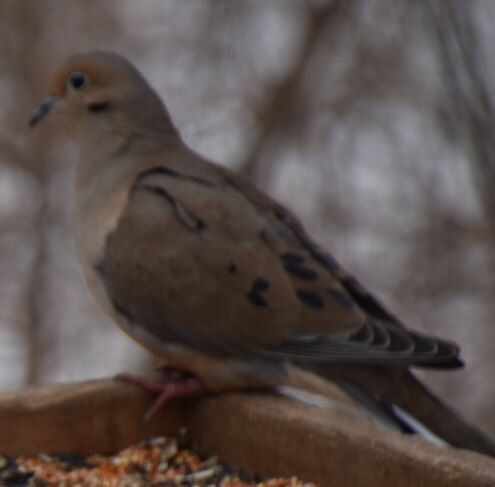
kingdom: Animalia
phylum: Chordata
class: Aves
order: Columbiformes
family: Columbidae
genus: Zenaida
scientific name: Zenaida macroura
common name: Mourning dove
